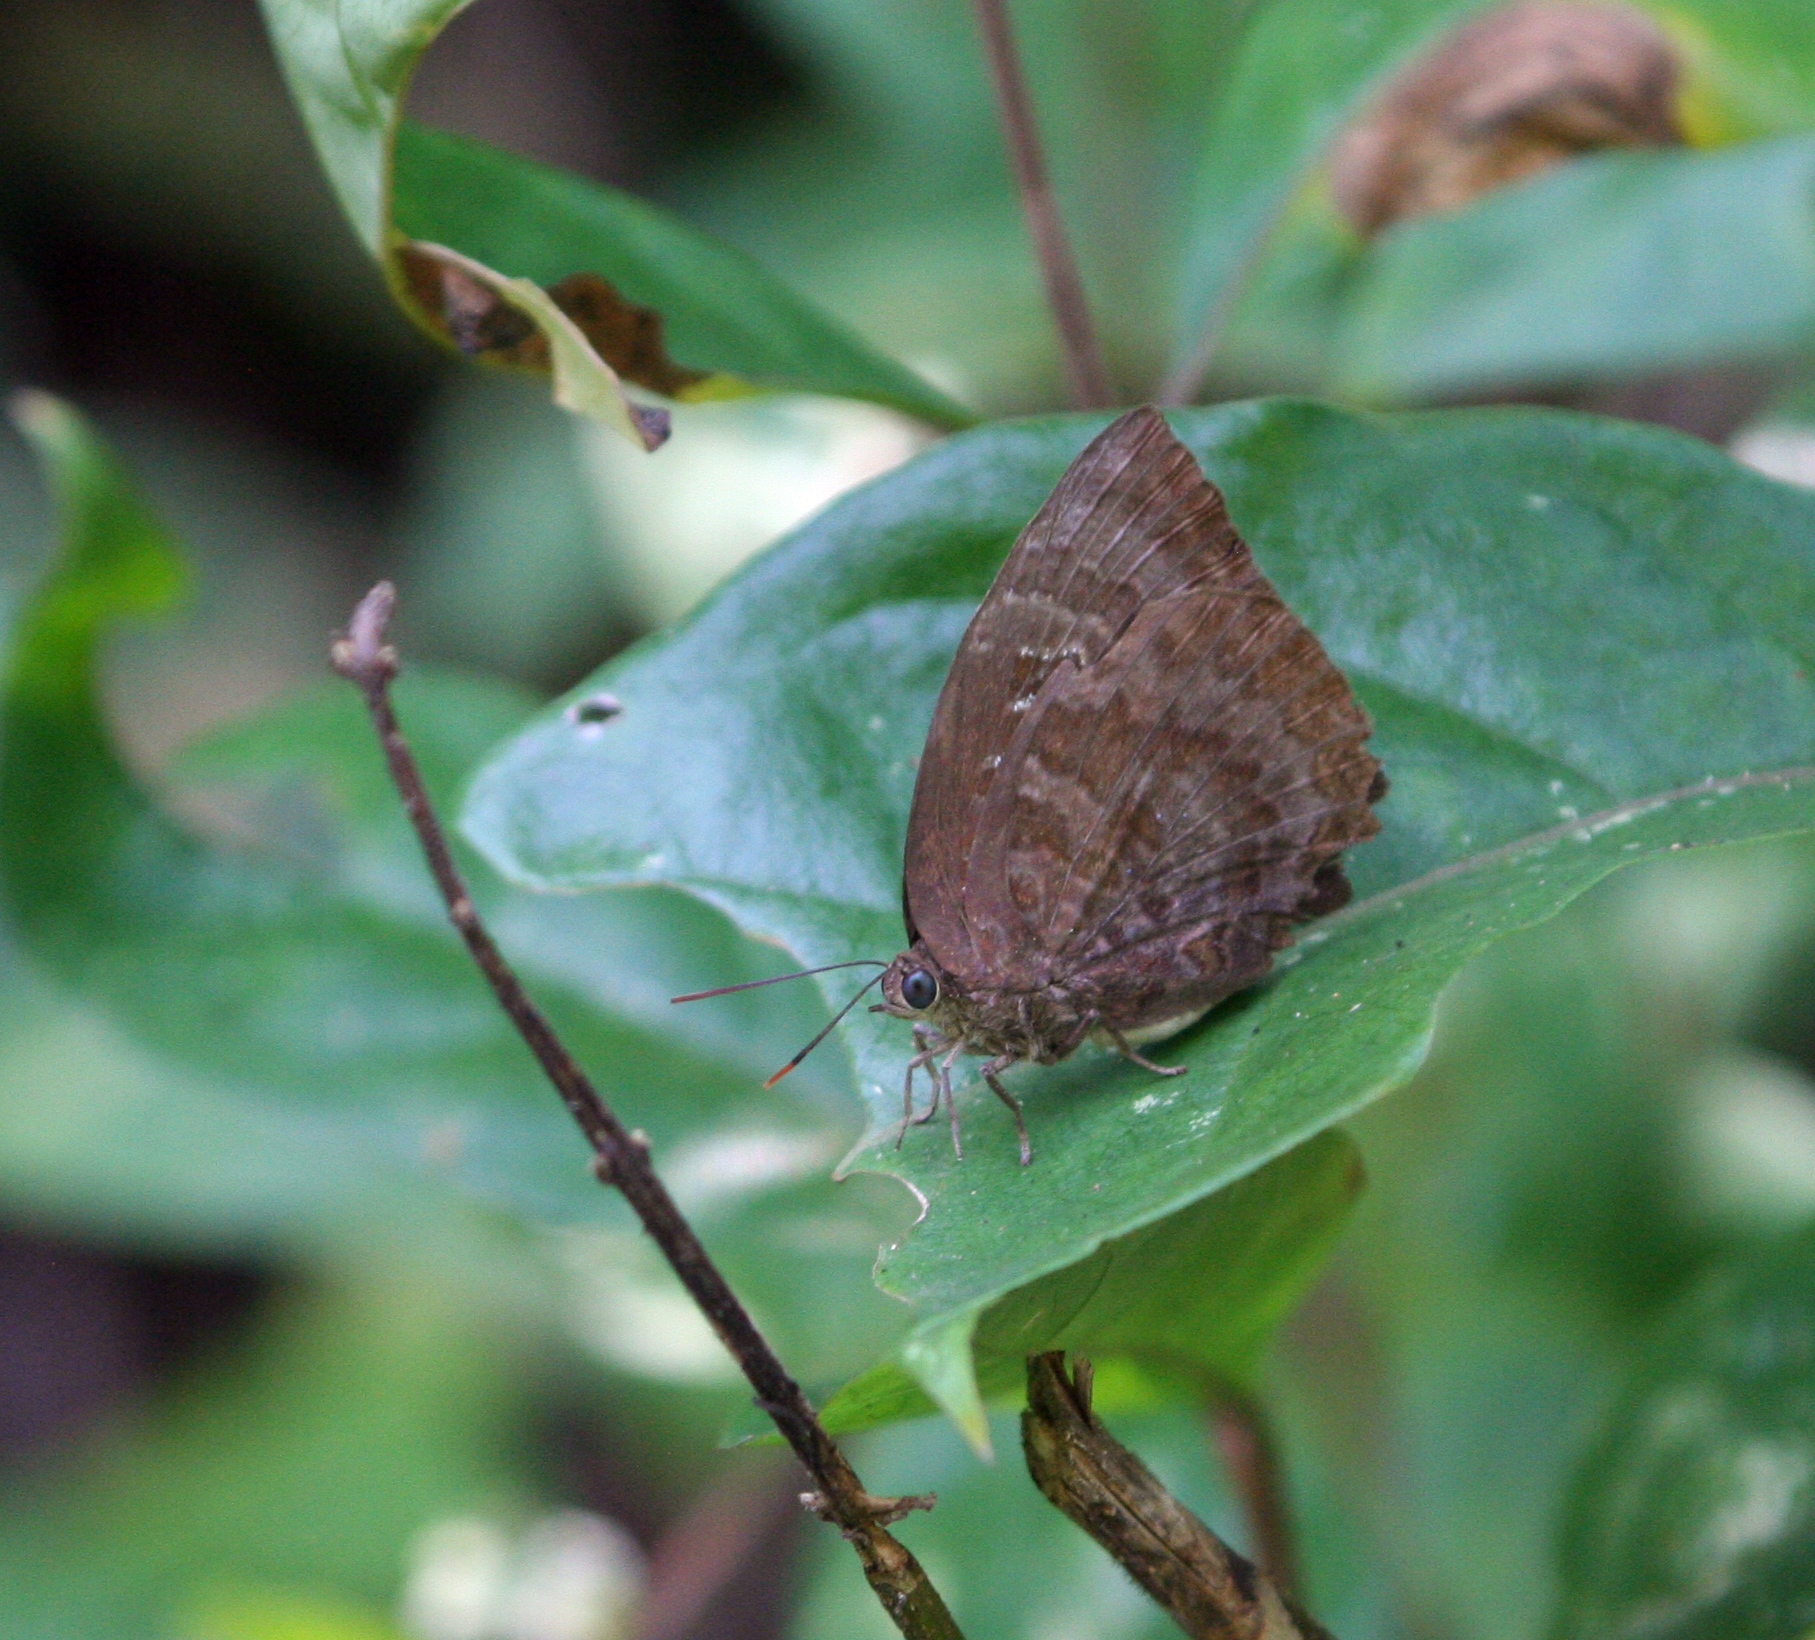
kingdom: Animalia
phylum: Arthropoda
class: Insecta
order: Lepidoptera
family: Lycaenidae
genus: Arhopala
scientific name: Arhopala centaurus
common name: Dull oak-blue
